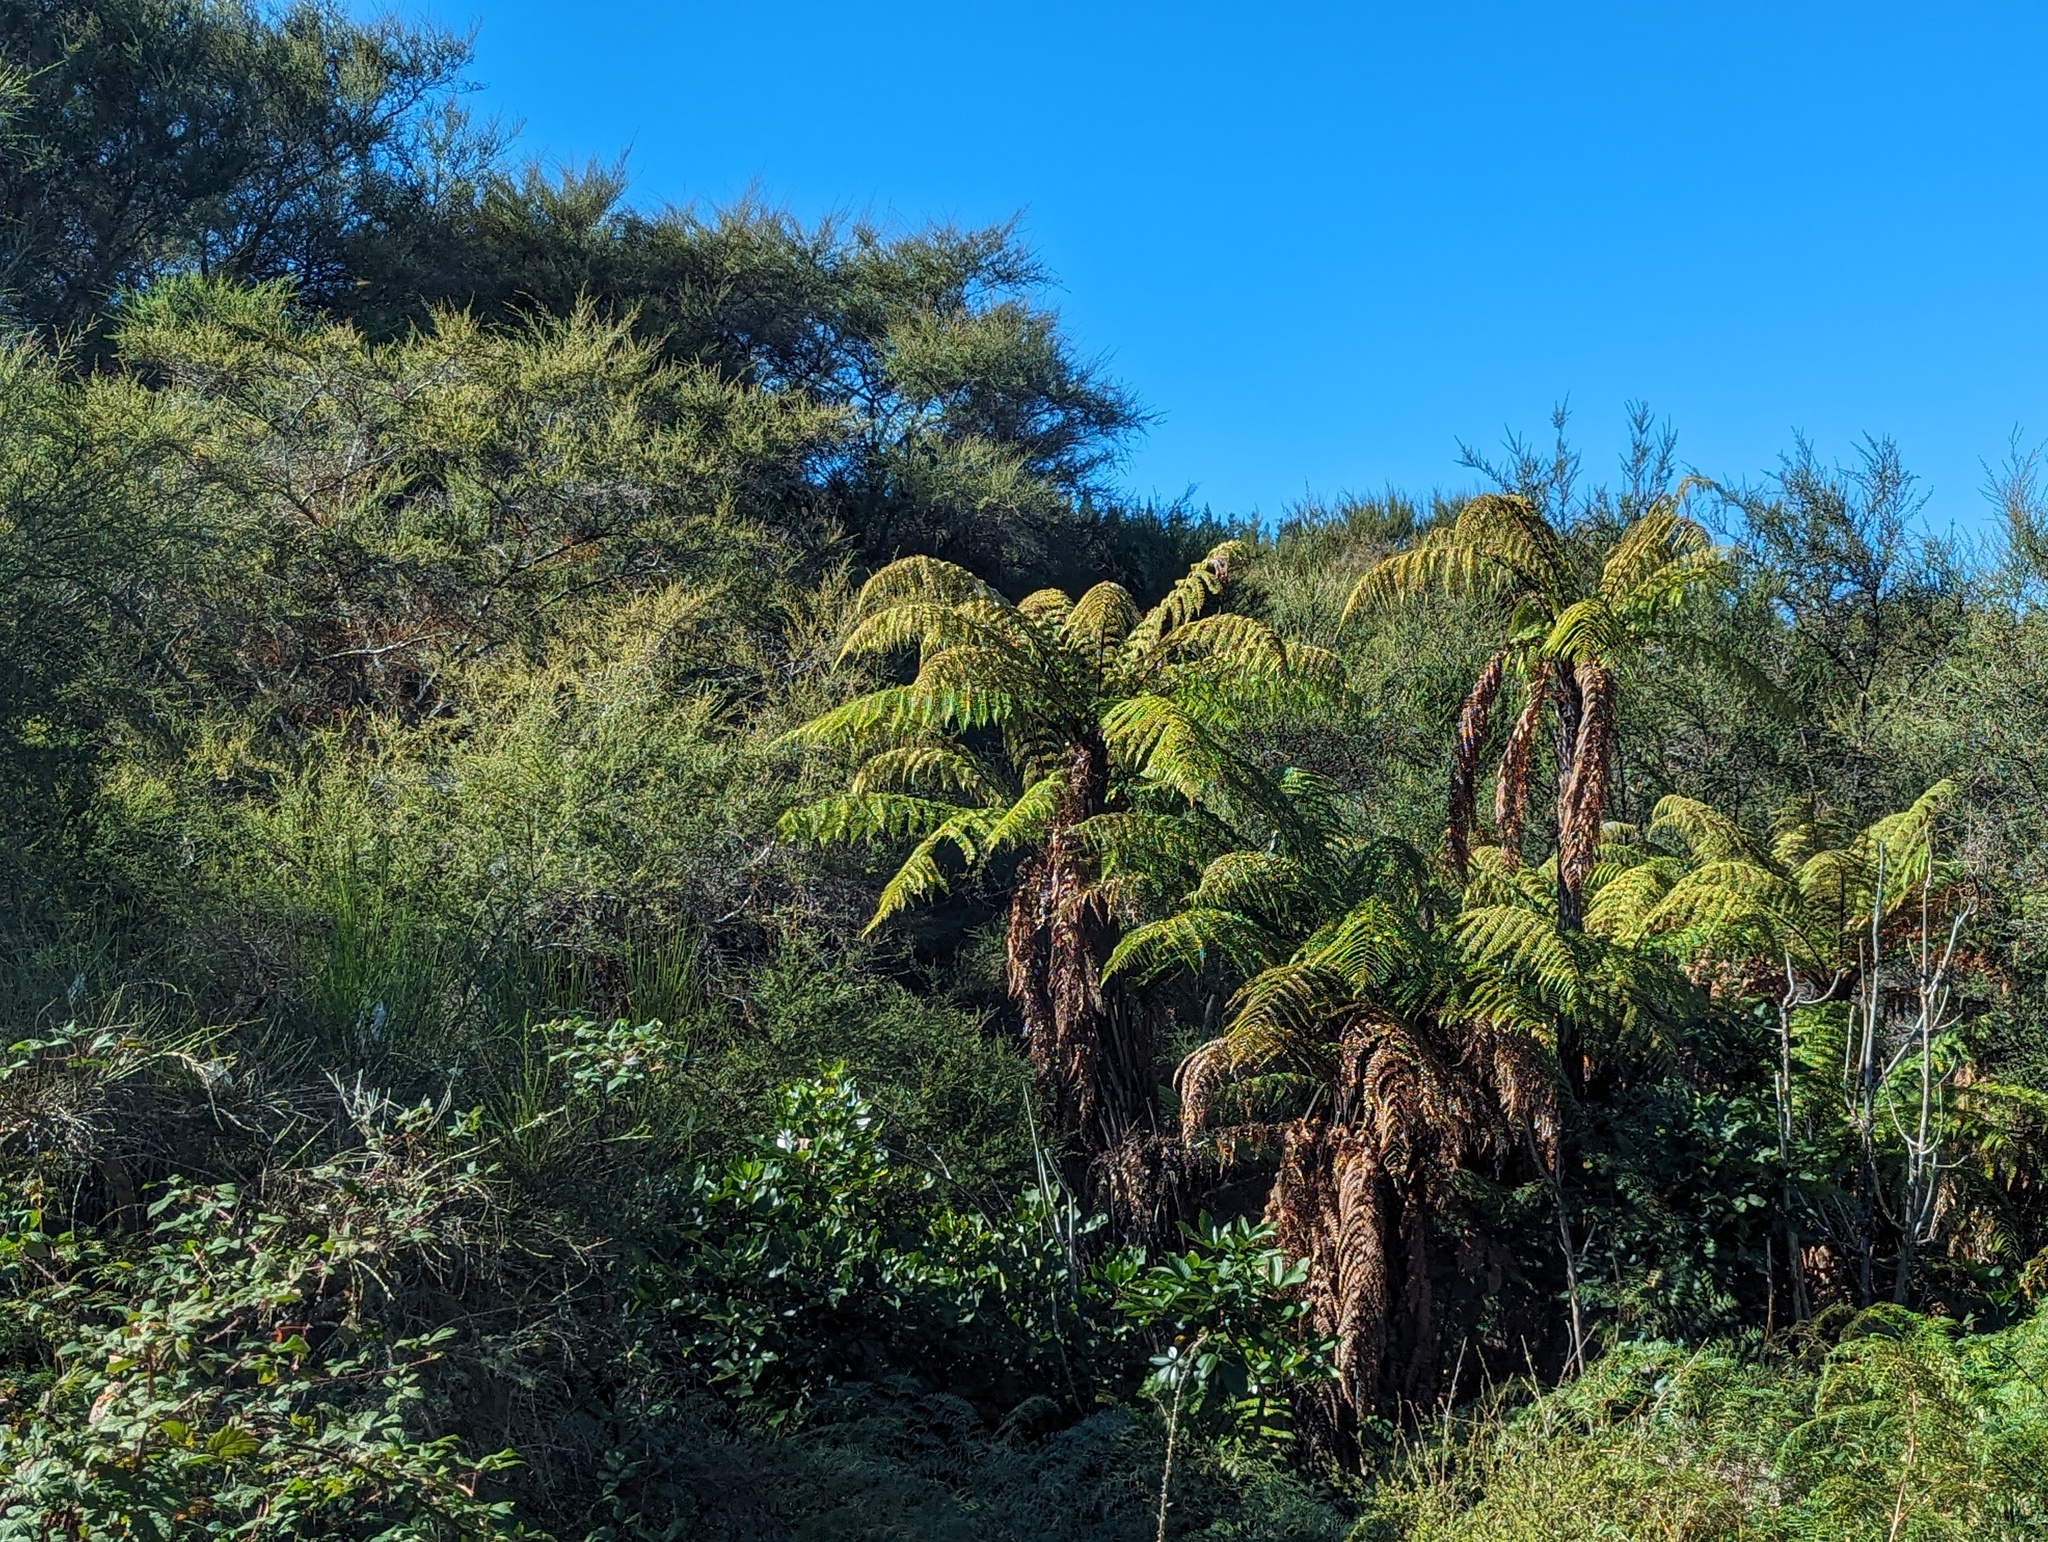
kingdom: Plantae
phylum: Tracheophyta
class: Polypodiopsida
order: Cyatheales
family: Dicksoniaceae
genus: Dicksonia
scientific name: Dicksonia squarrosa
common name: Hard treefern
